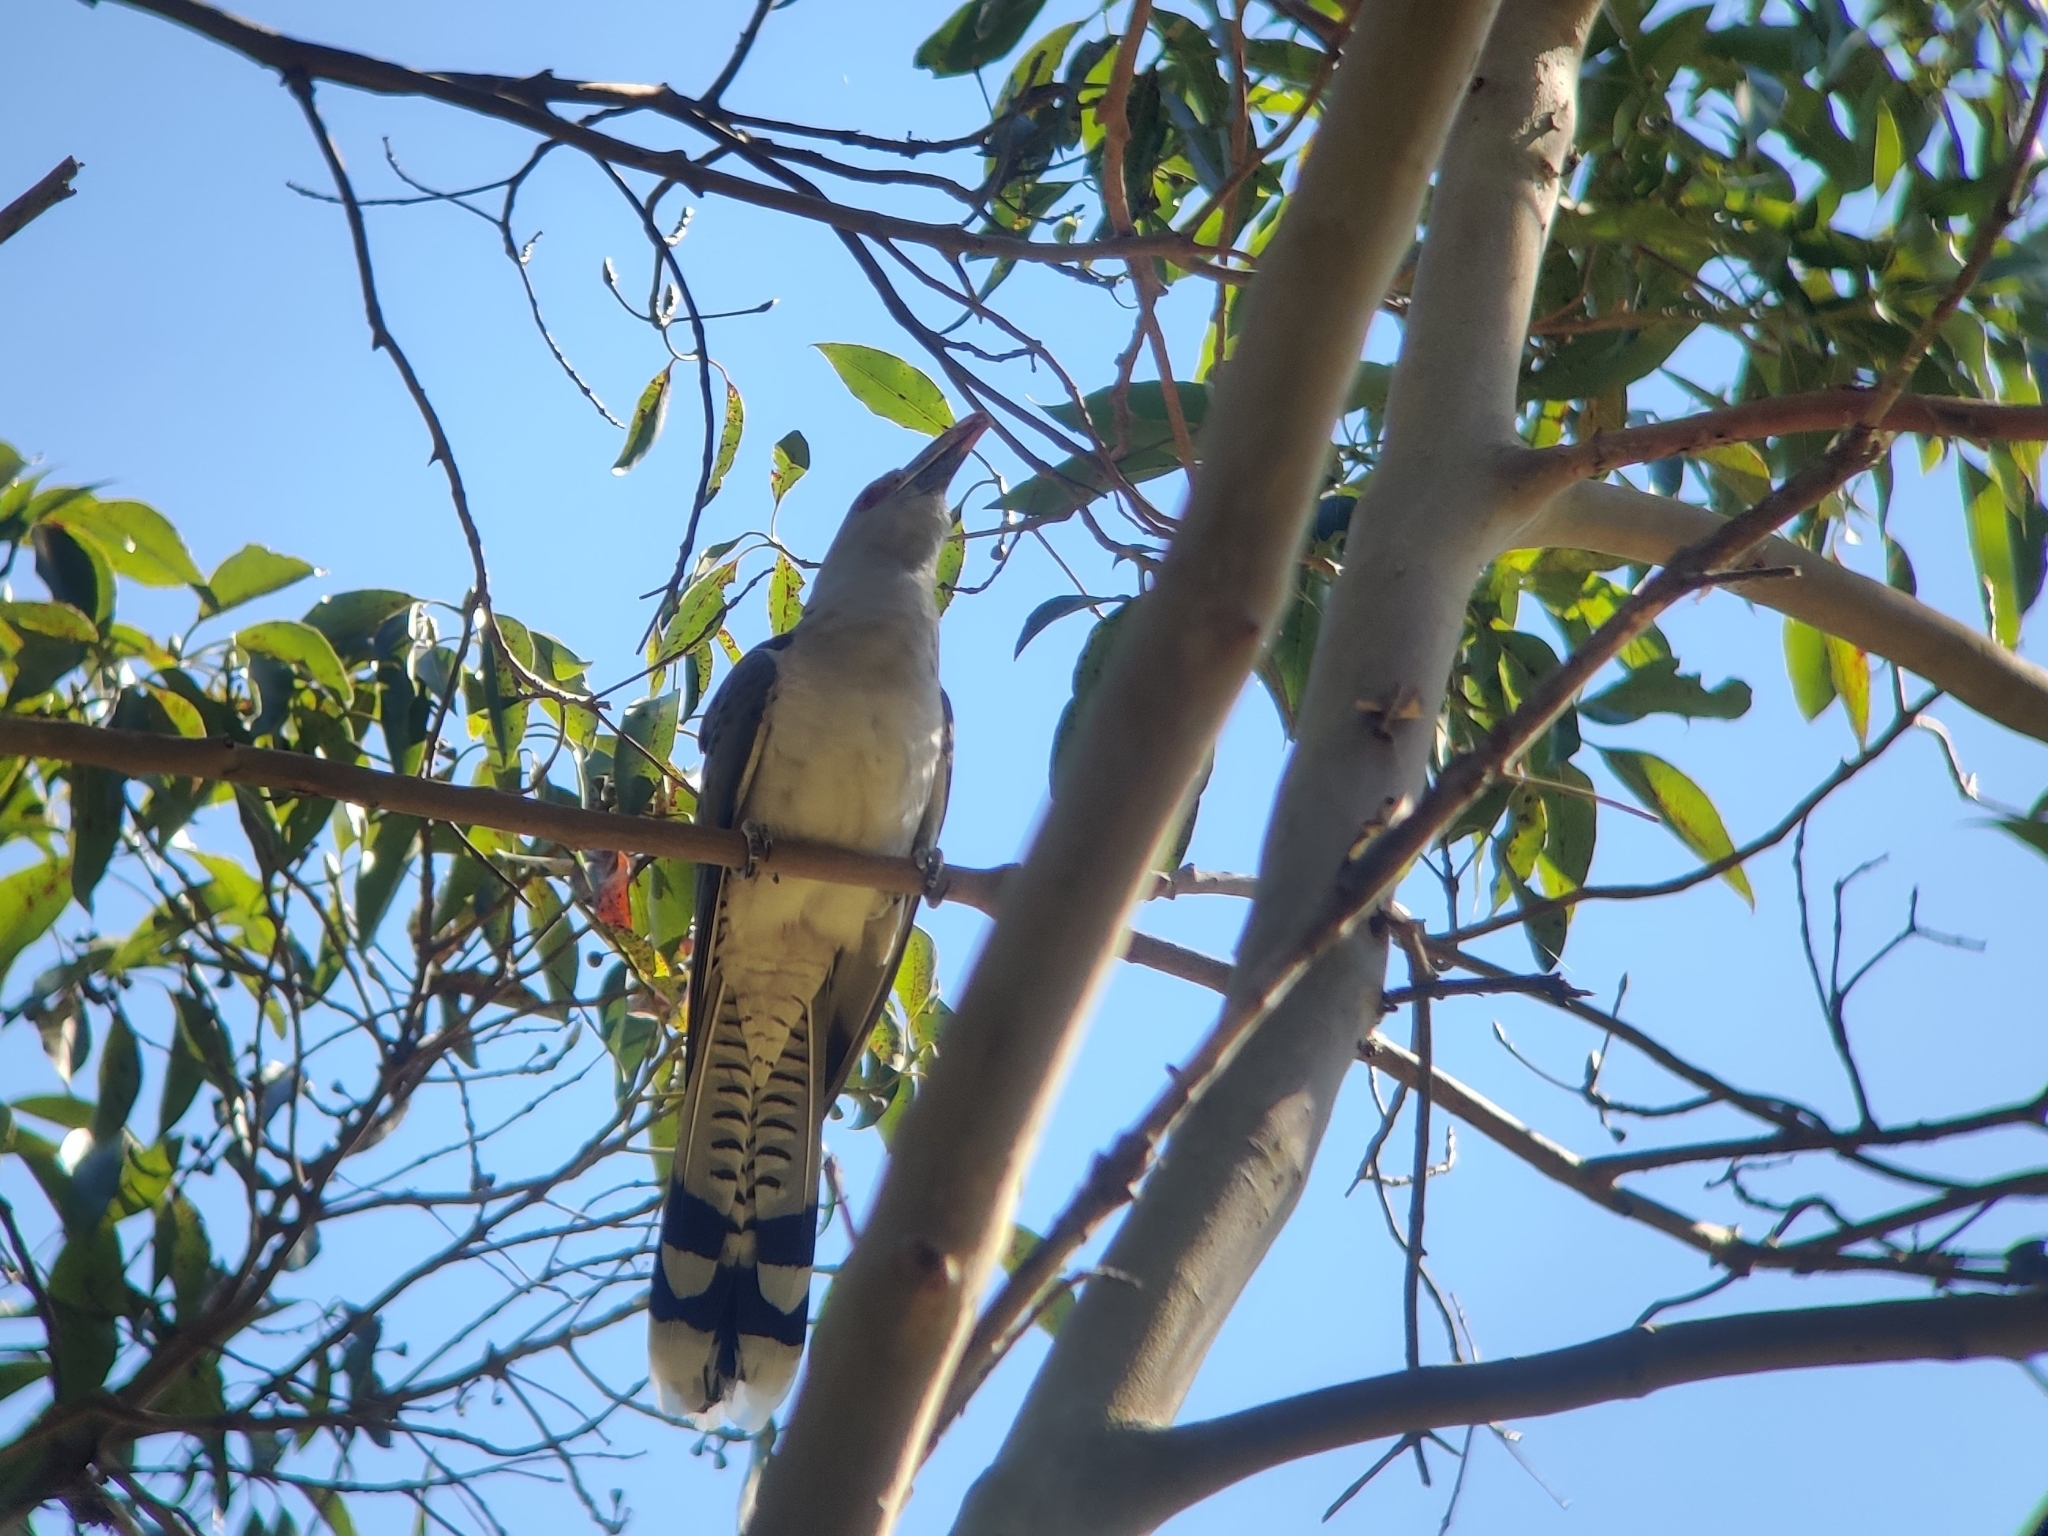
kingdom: Animalia
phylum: Chordata
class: Aves
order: Cuculiformes
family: Cuculidae
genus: Scythrops
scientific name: Scythrops novaehollandiae
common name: Channel-billed cuckoo
